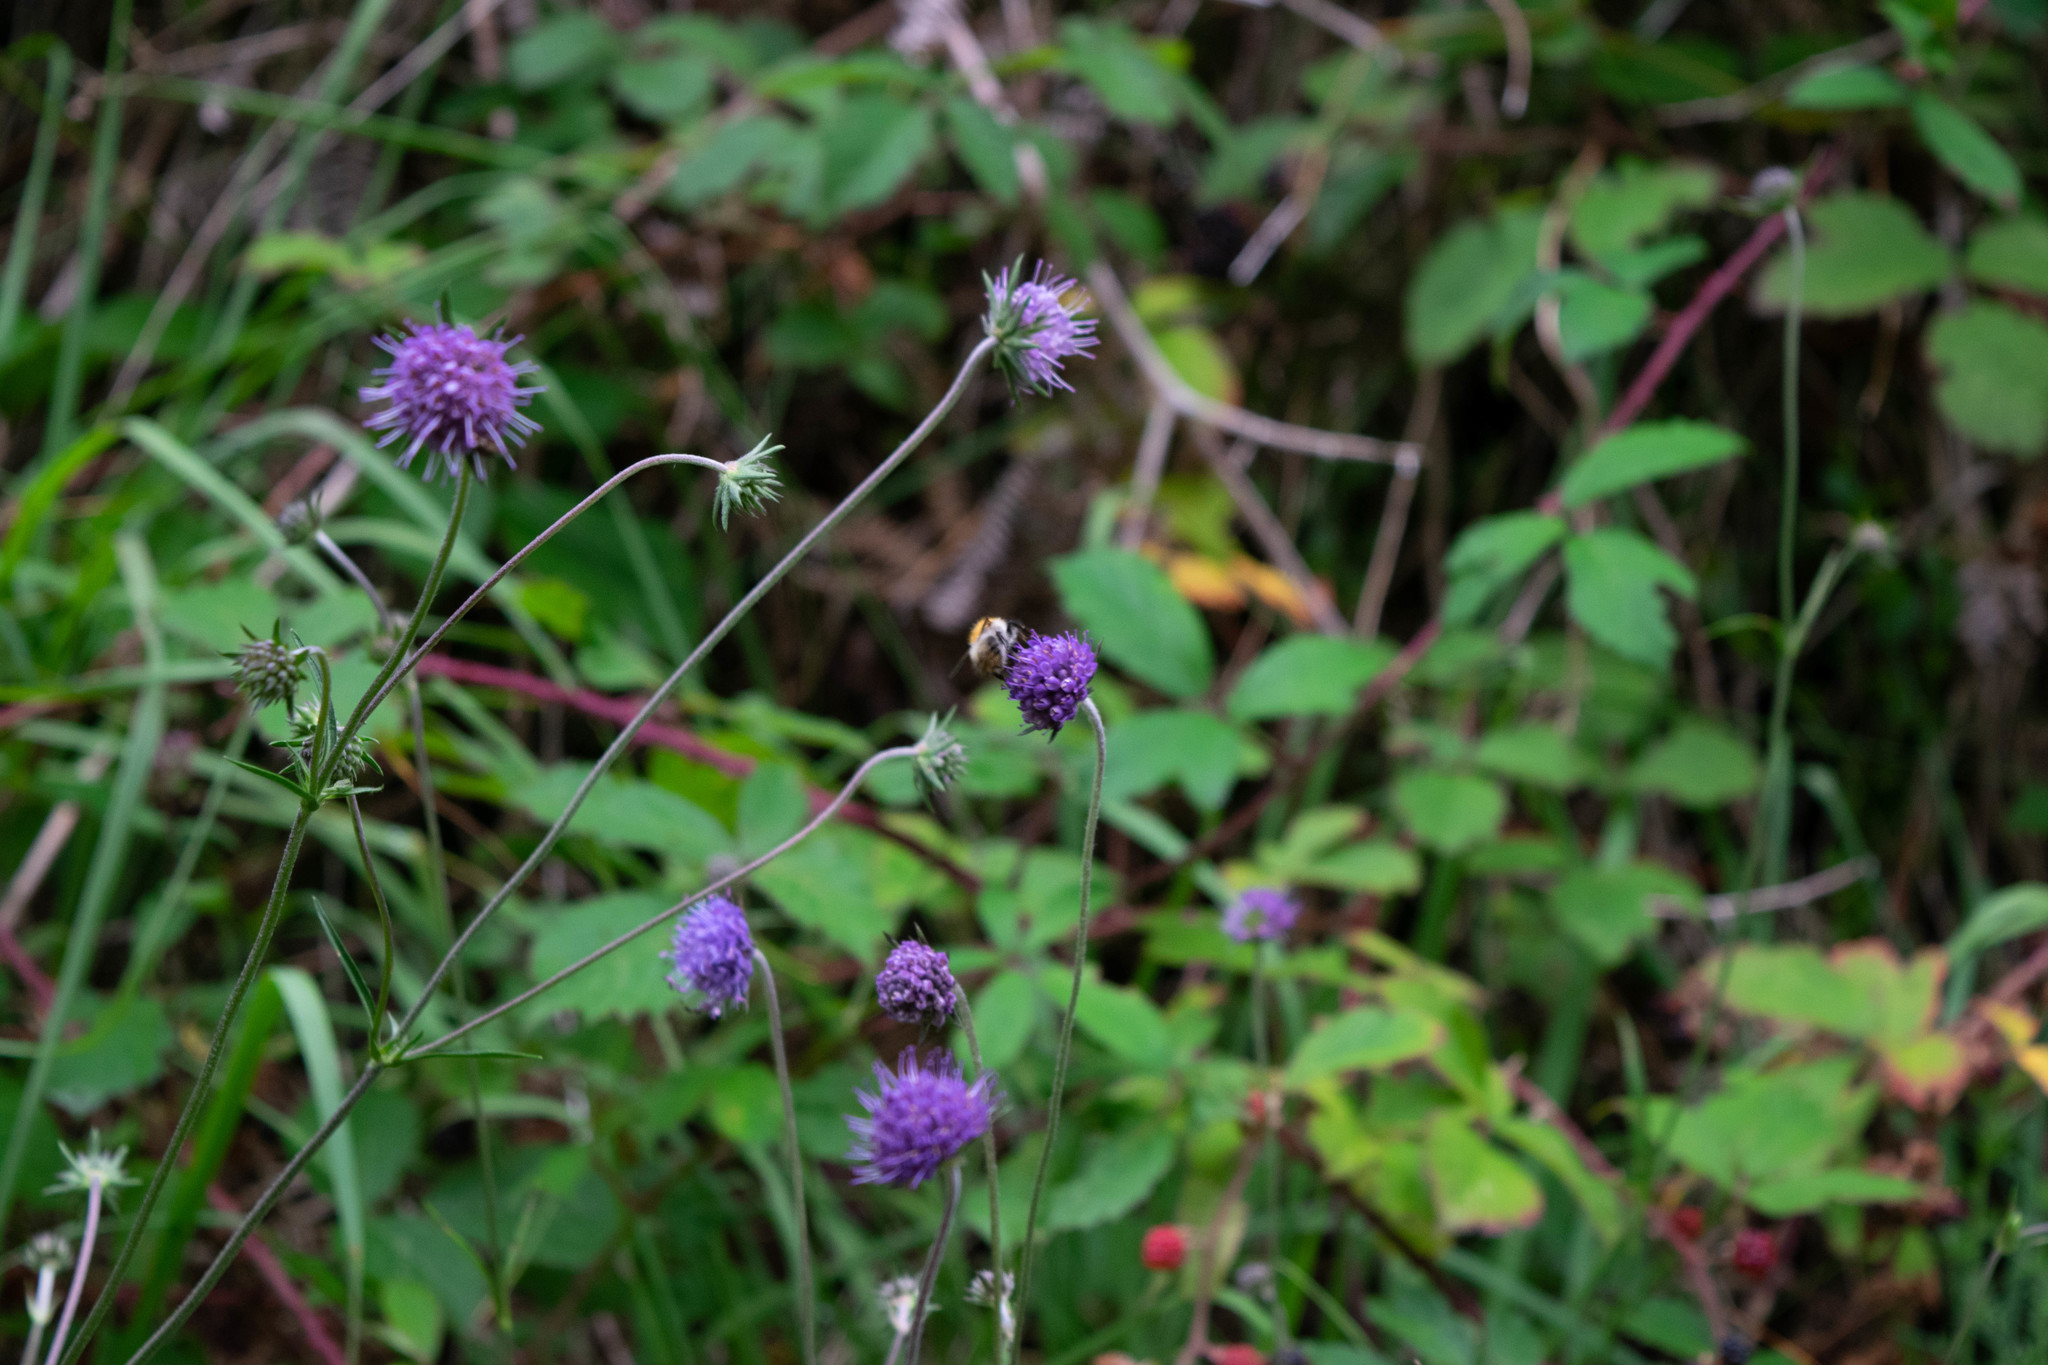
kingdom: Plantae
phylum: Tracheophyta
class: Magnoliopsida
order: Dipsacales
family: Caprifoliaceae
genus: Succisa
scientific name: Succisa pratensis
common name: Devil's-bit
